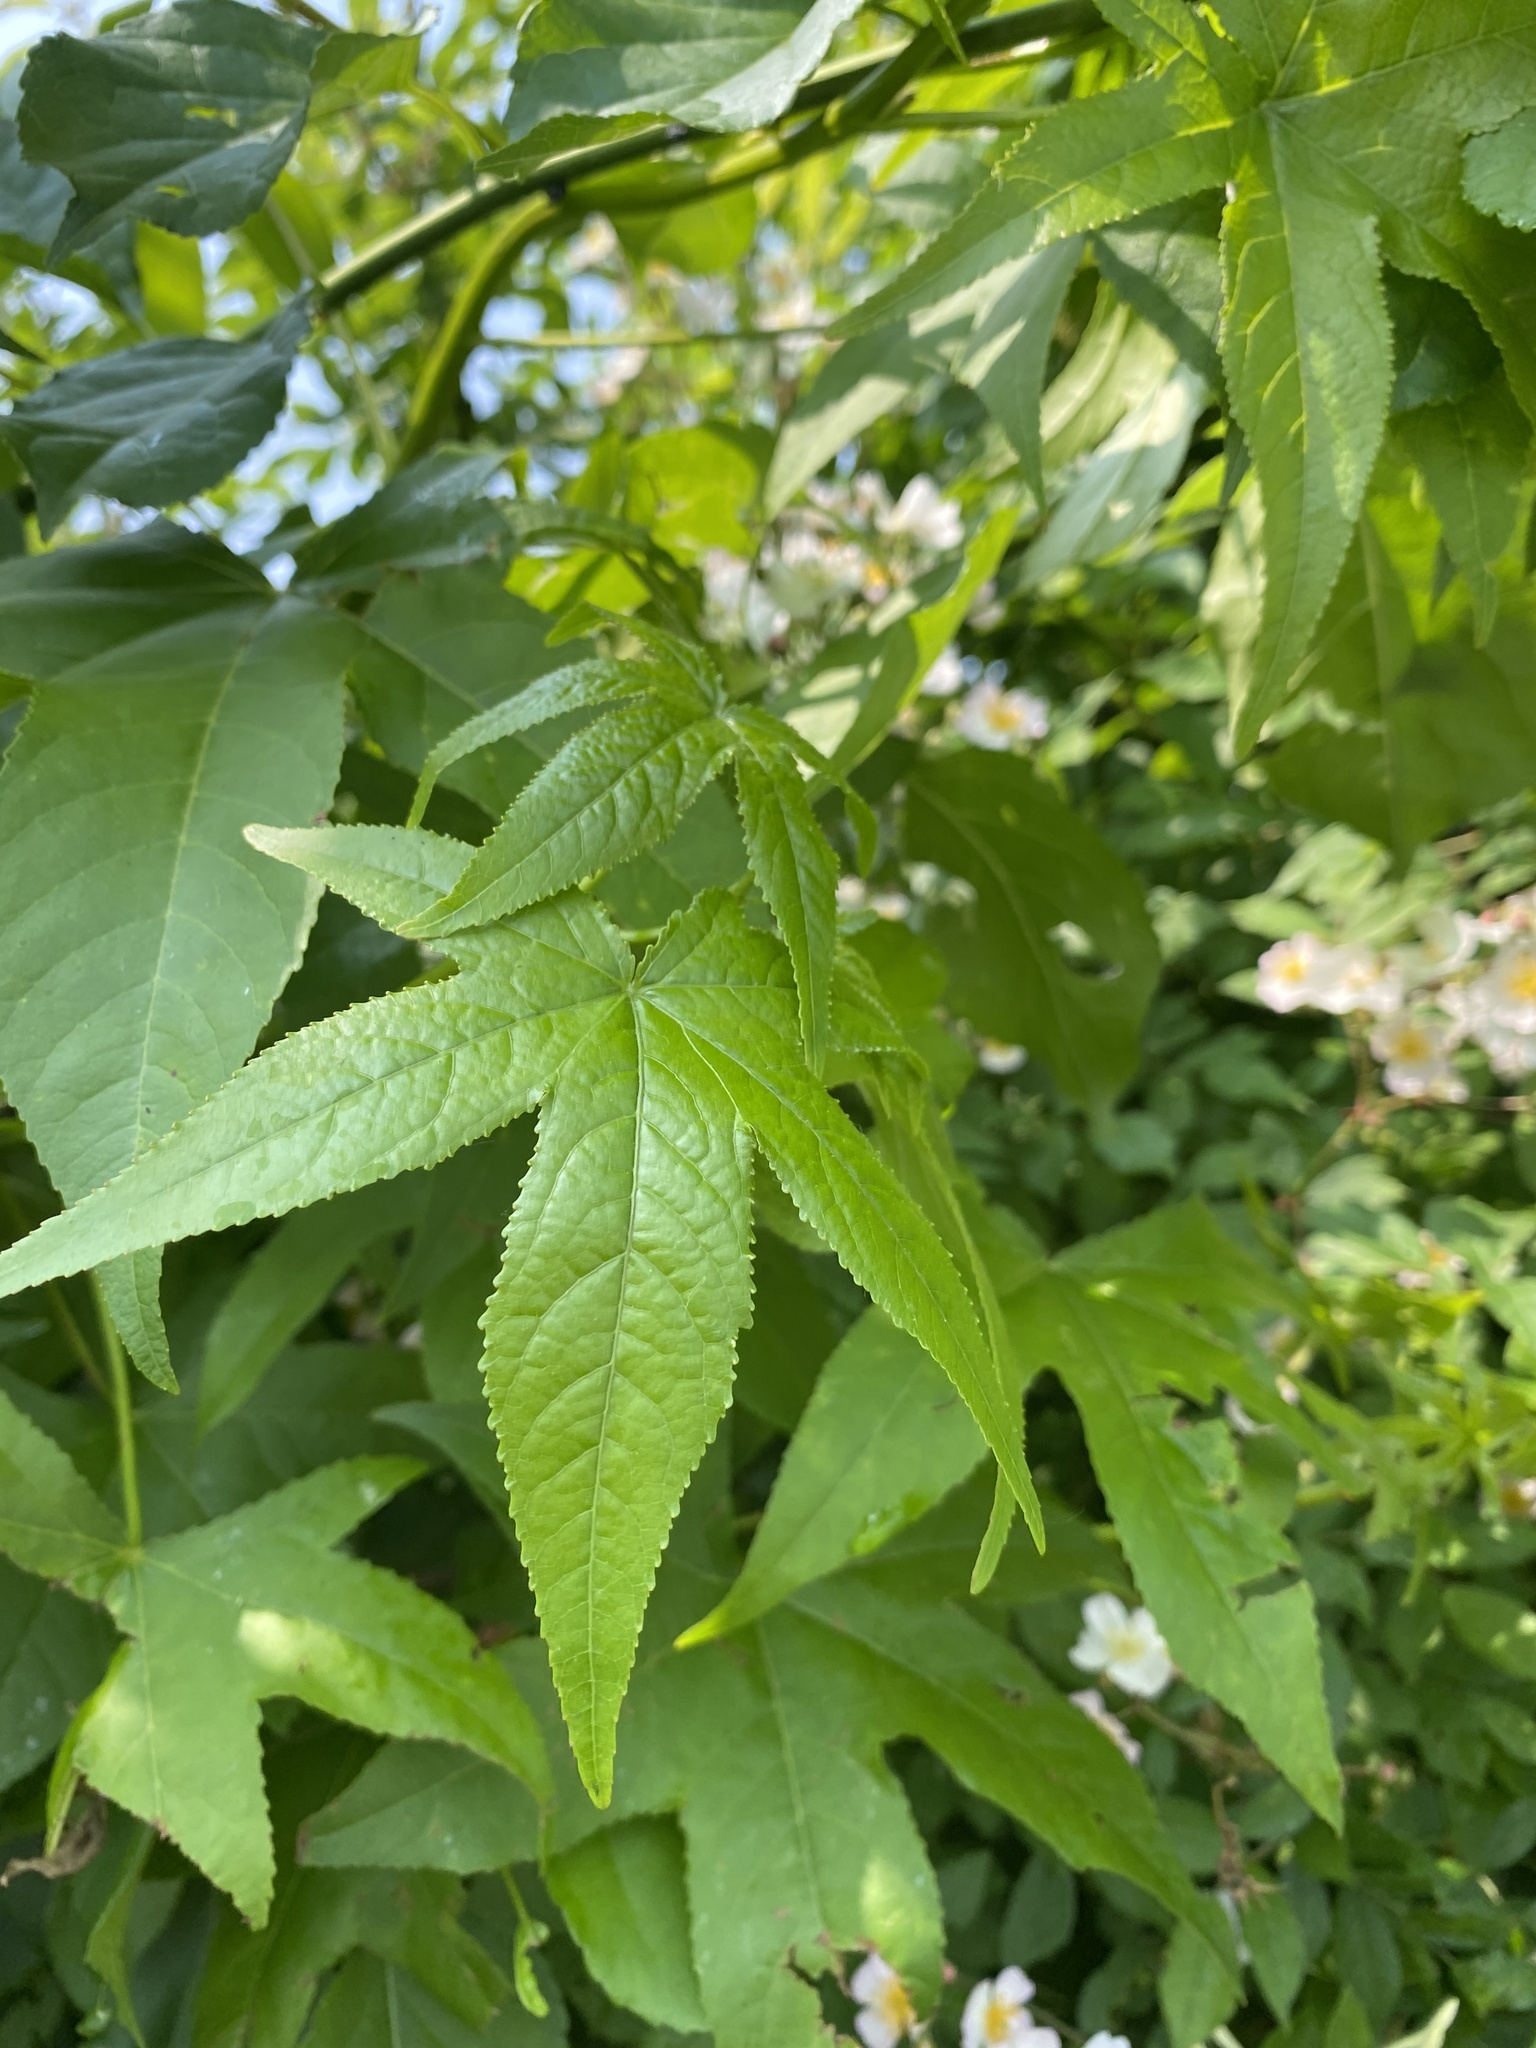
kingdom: Plantae
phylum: Tracheophyta
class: Magnoliopsida
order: Saxifragales
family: Altingiaceae
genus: Liquidambar
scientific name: Liquidambar styraciflua
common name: Sweet gum
